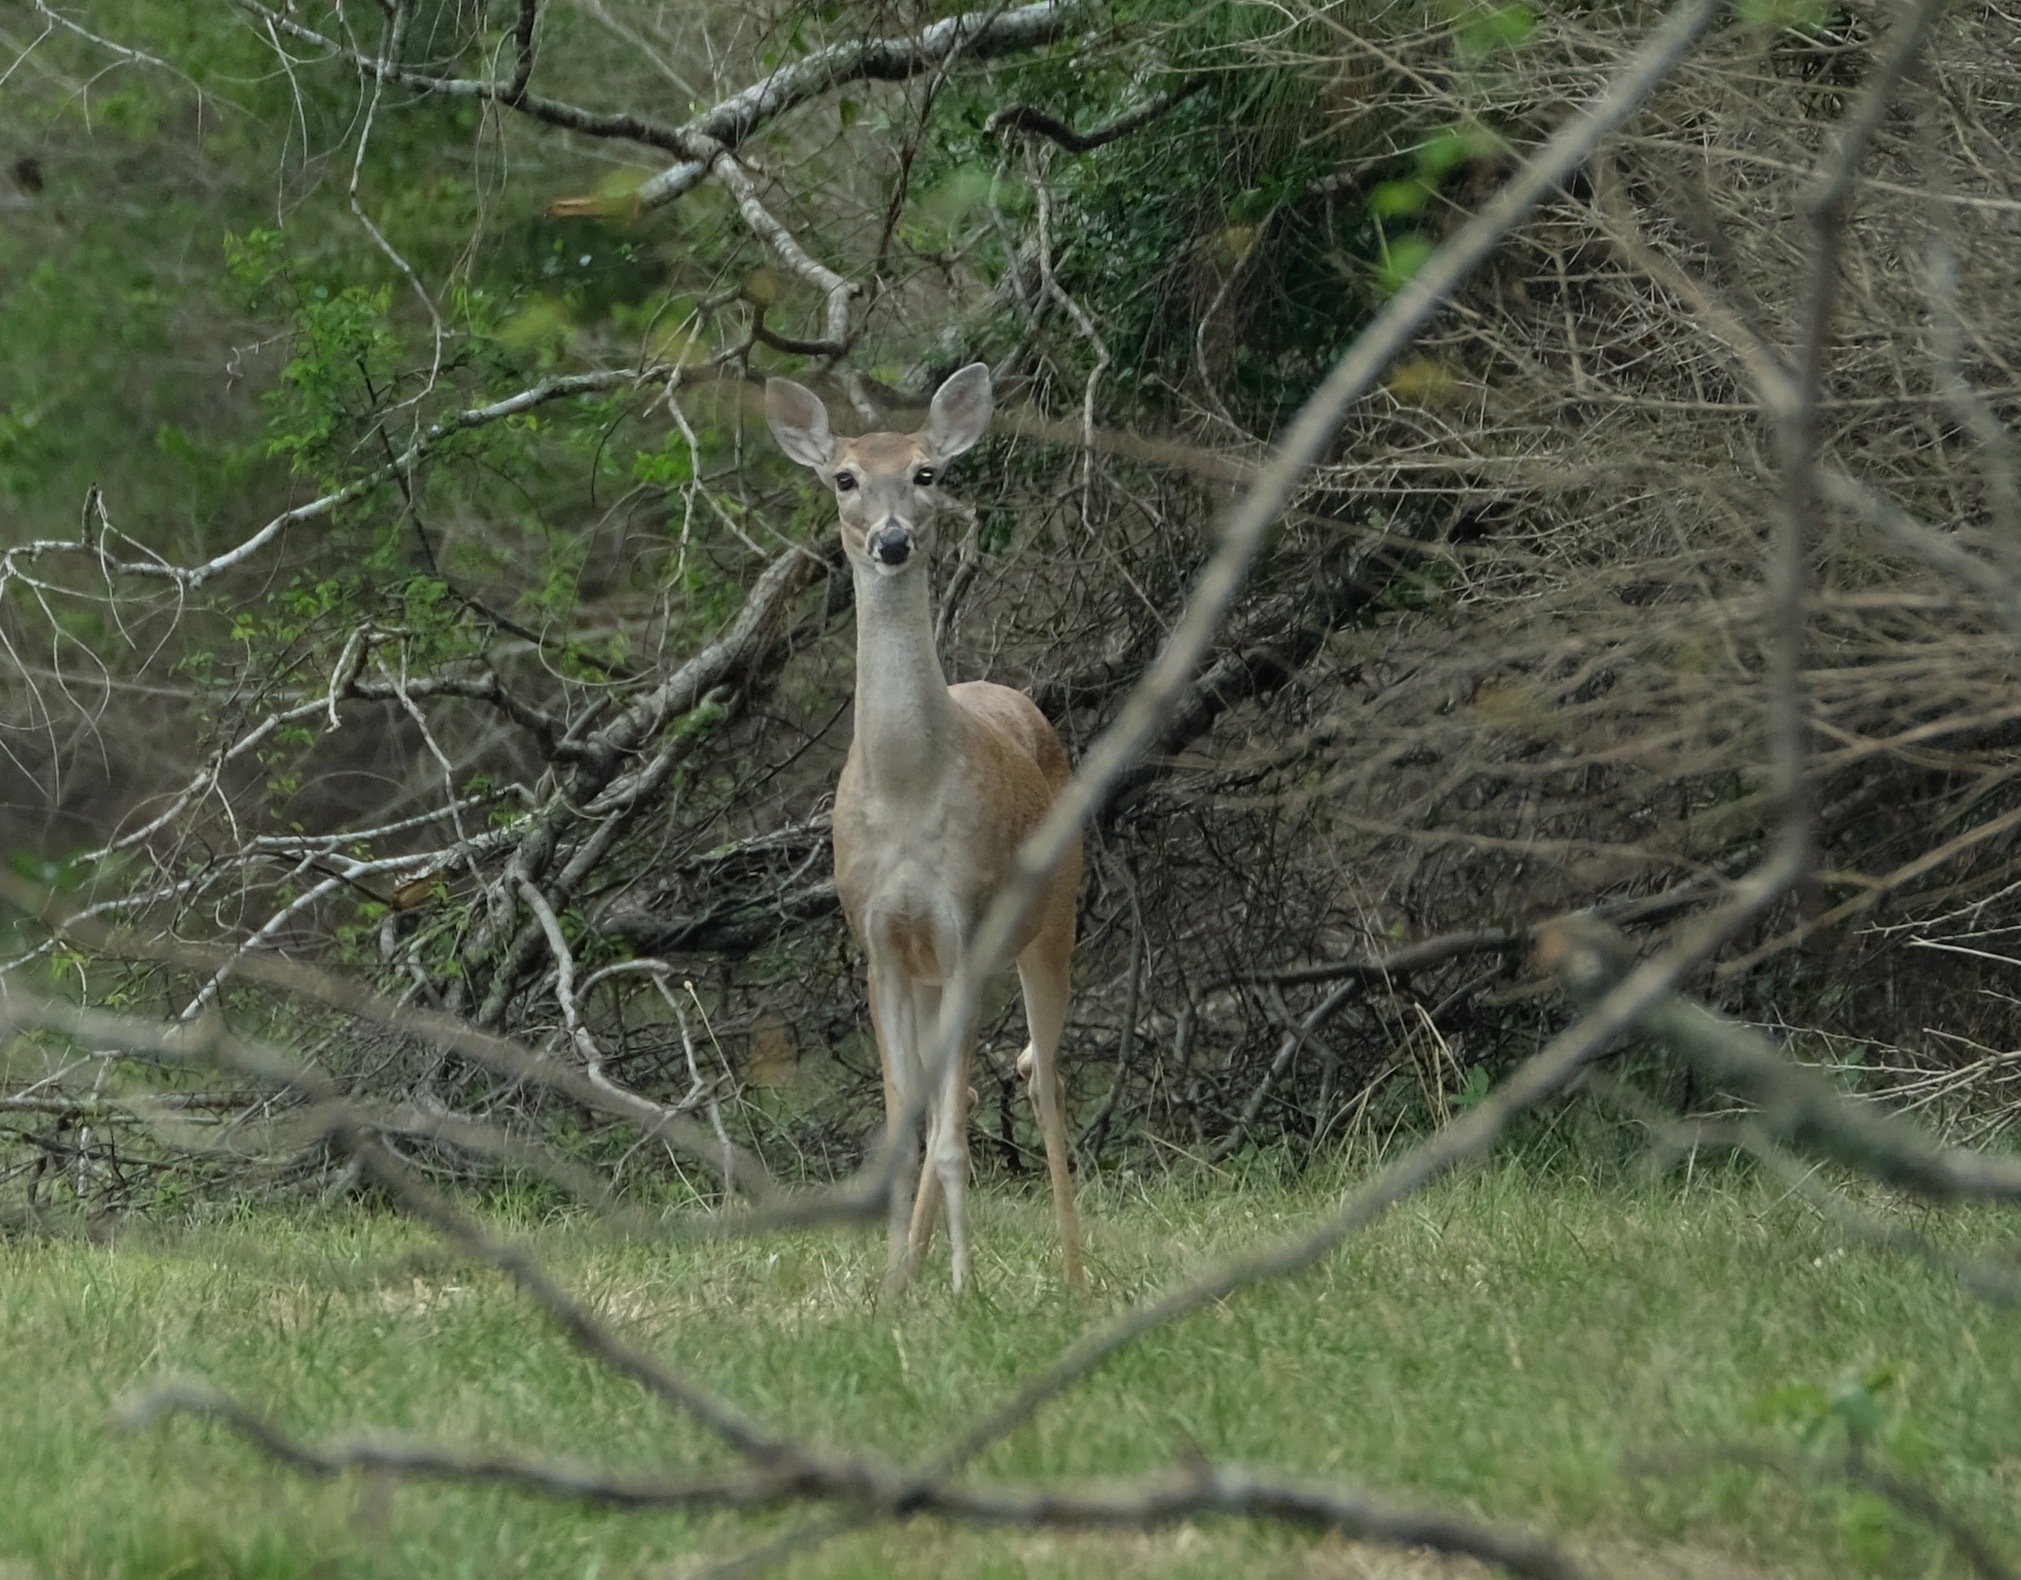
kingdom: Animalia
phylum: Chordata
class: Mammalia
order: Artiodactyla
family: Cervidae
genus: Odocoileus
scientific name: Odocoileus virginianus
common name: White-tailed deer
